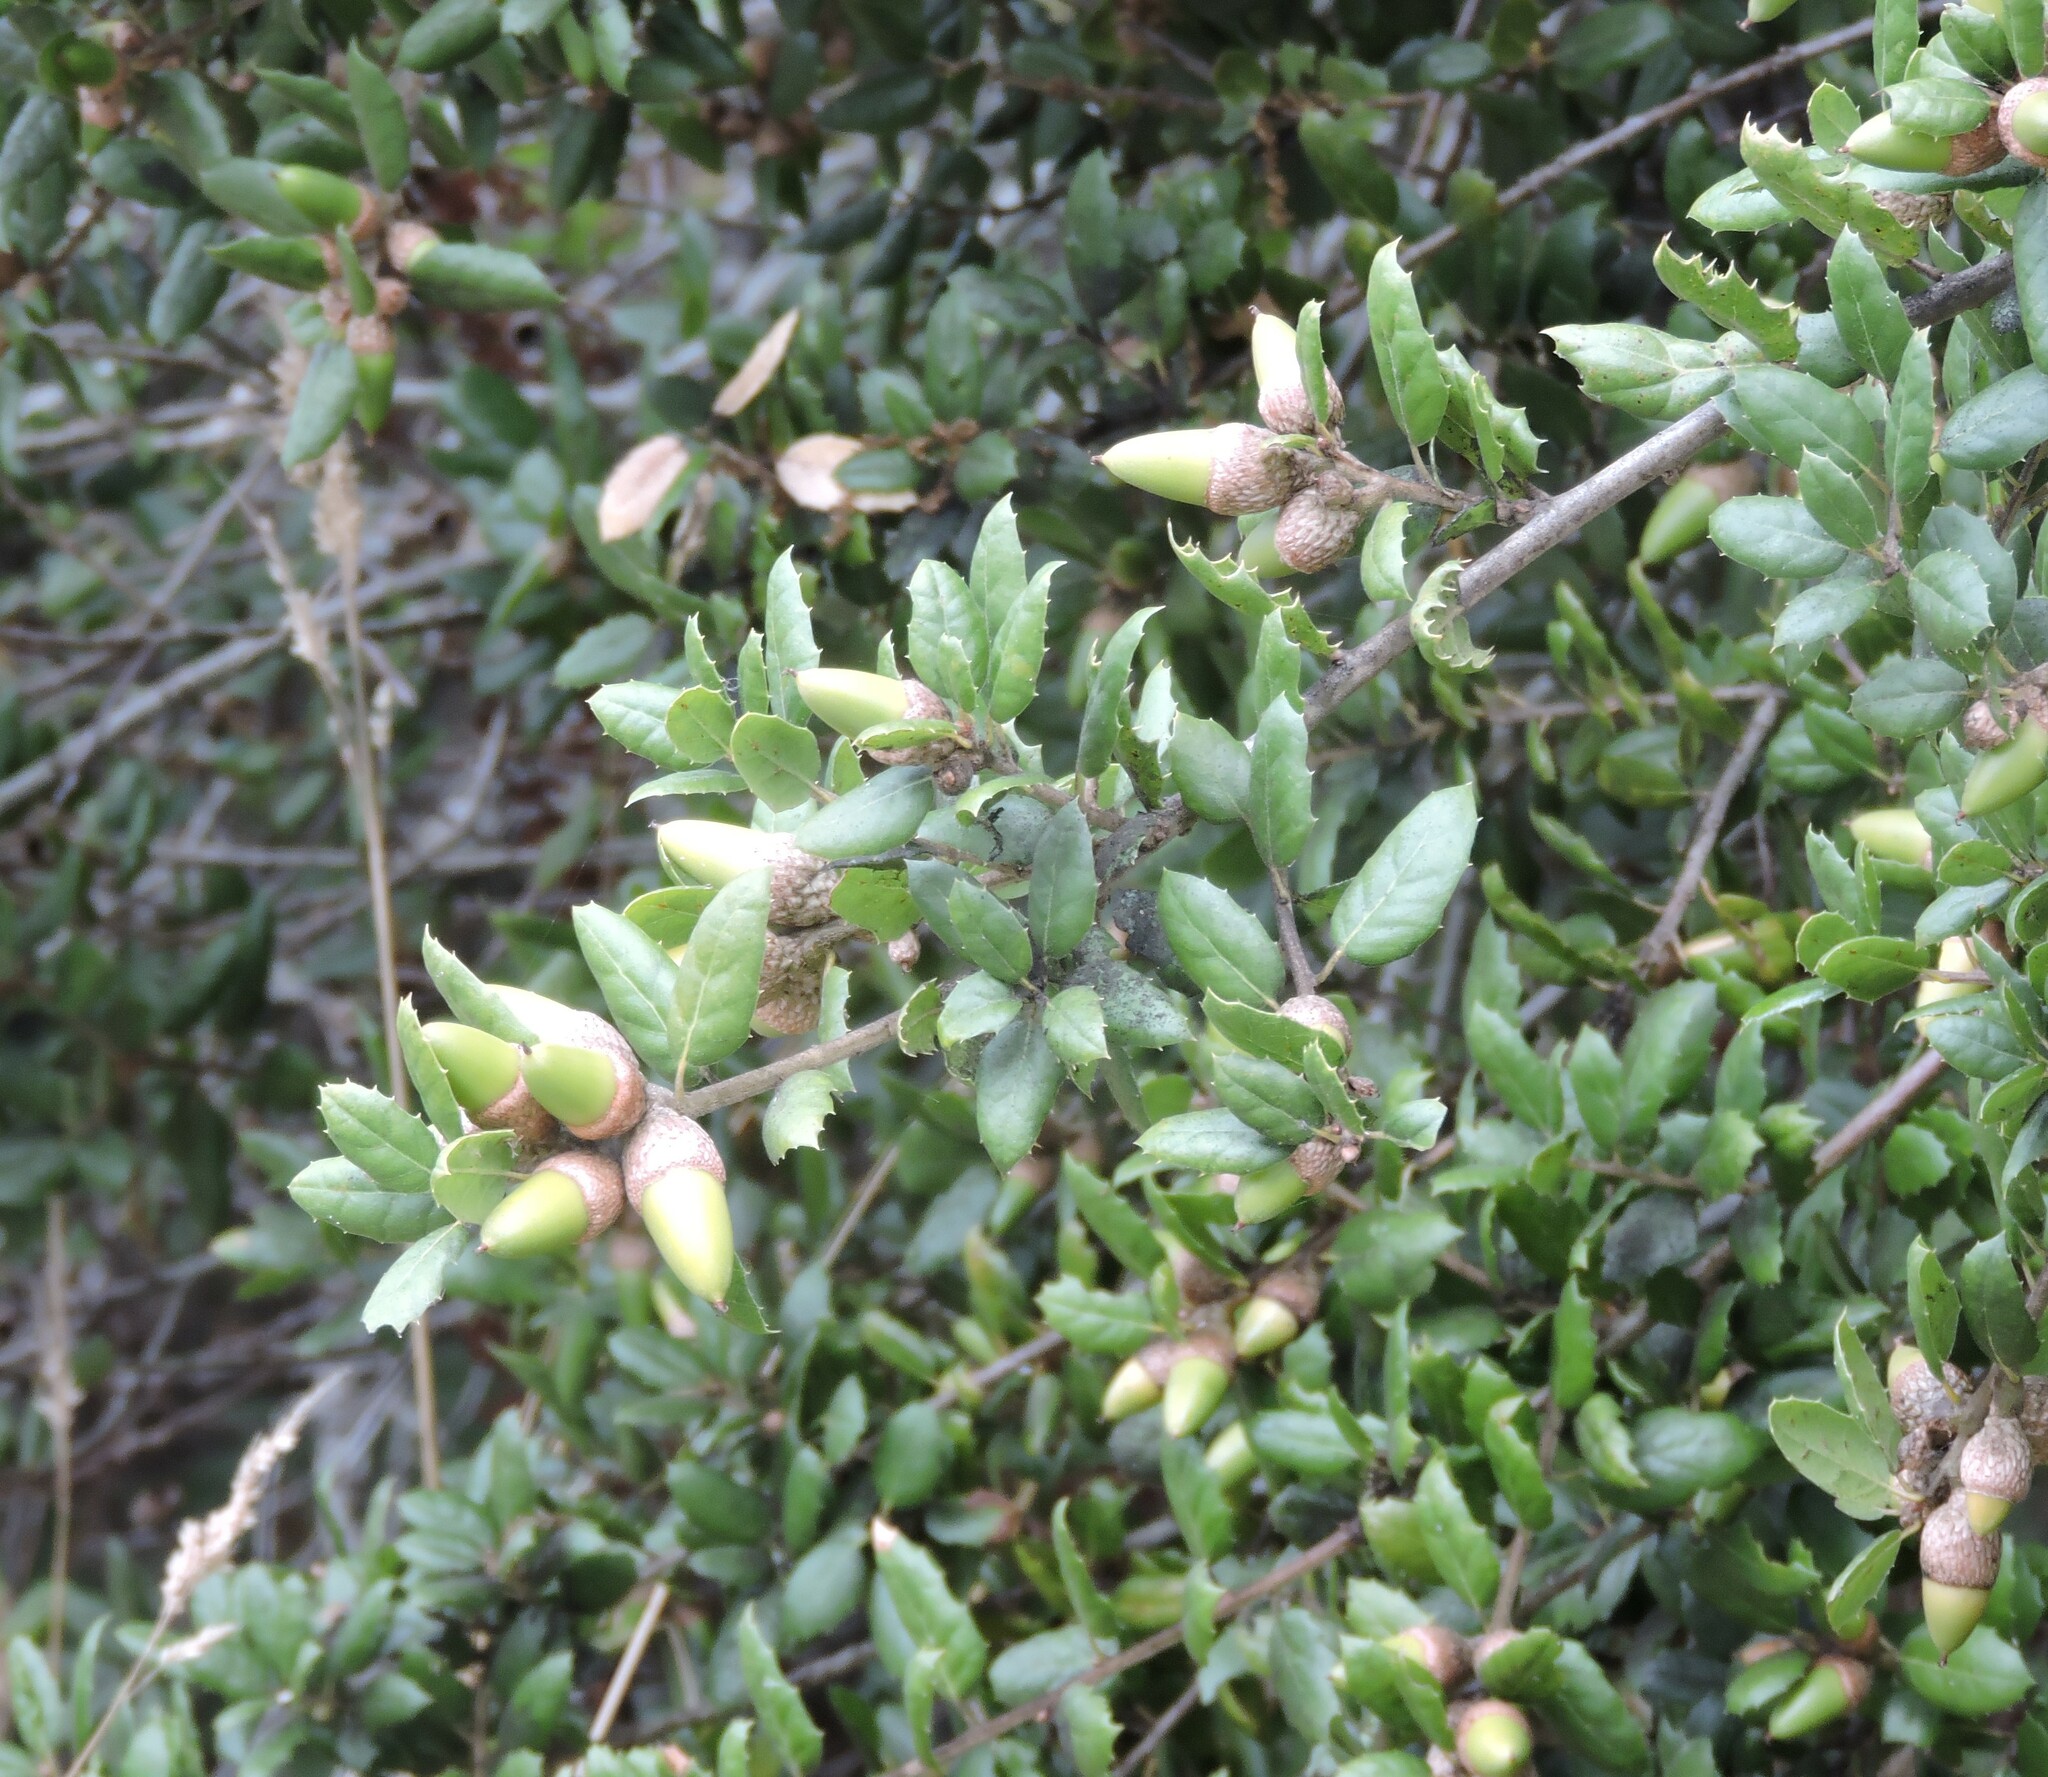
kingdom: Plantae
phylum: Tracheophyta
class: Magnoliopsida
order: Fagales
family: Fagaceae
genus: Quercus
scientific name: Quercus agrifolia
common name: California live oak
